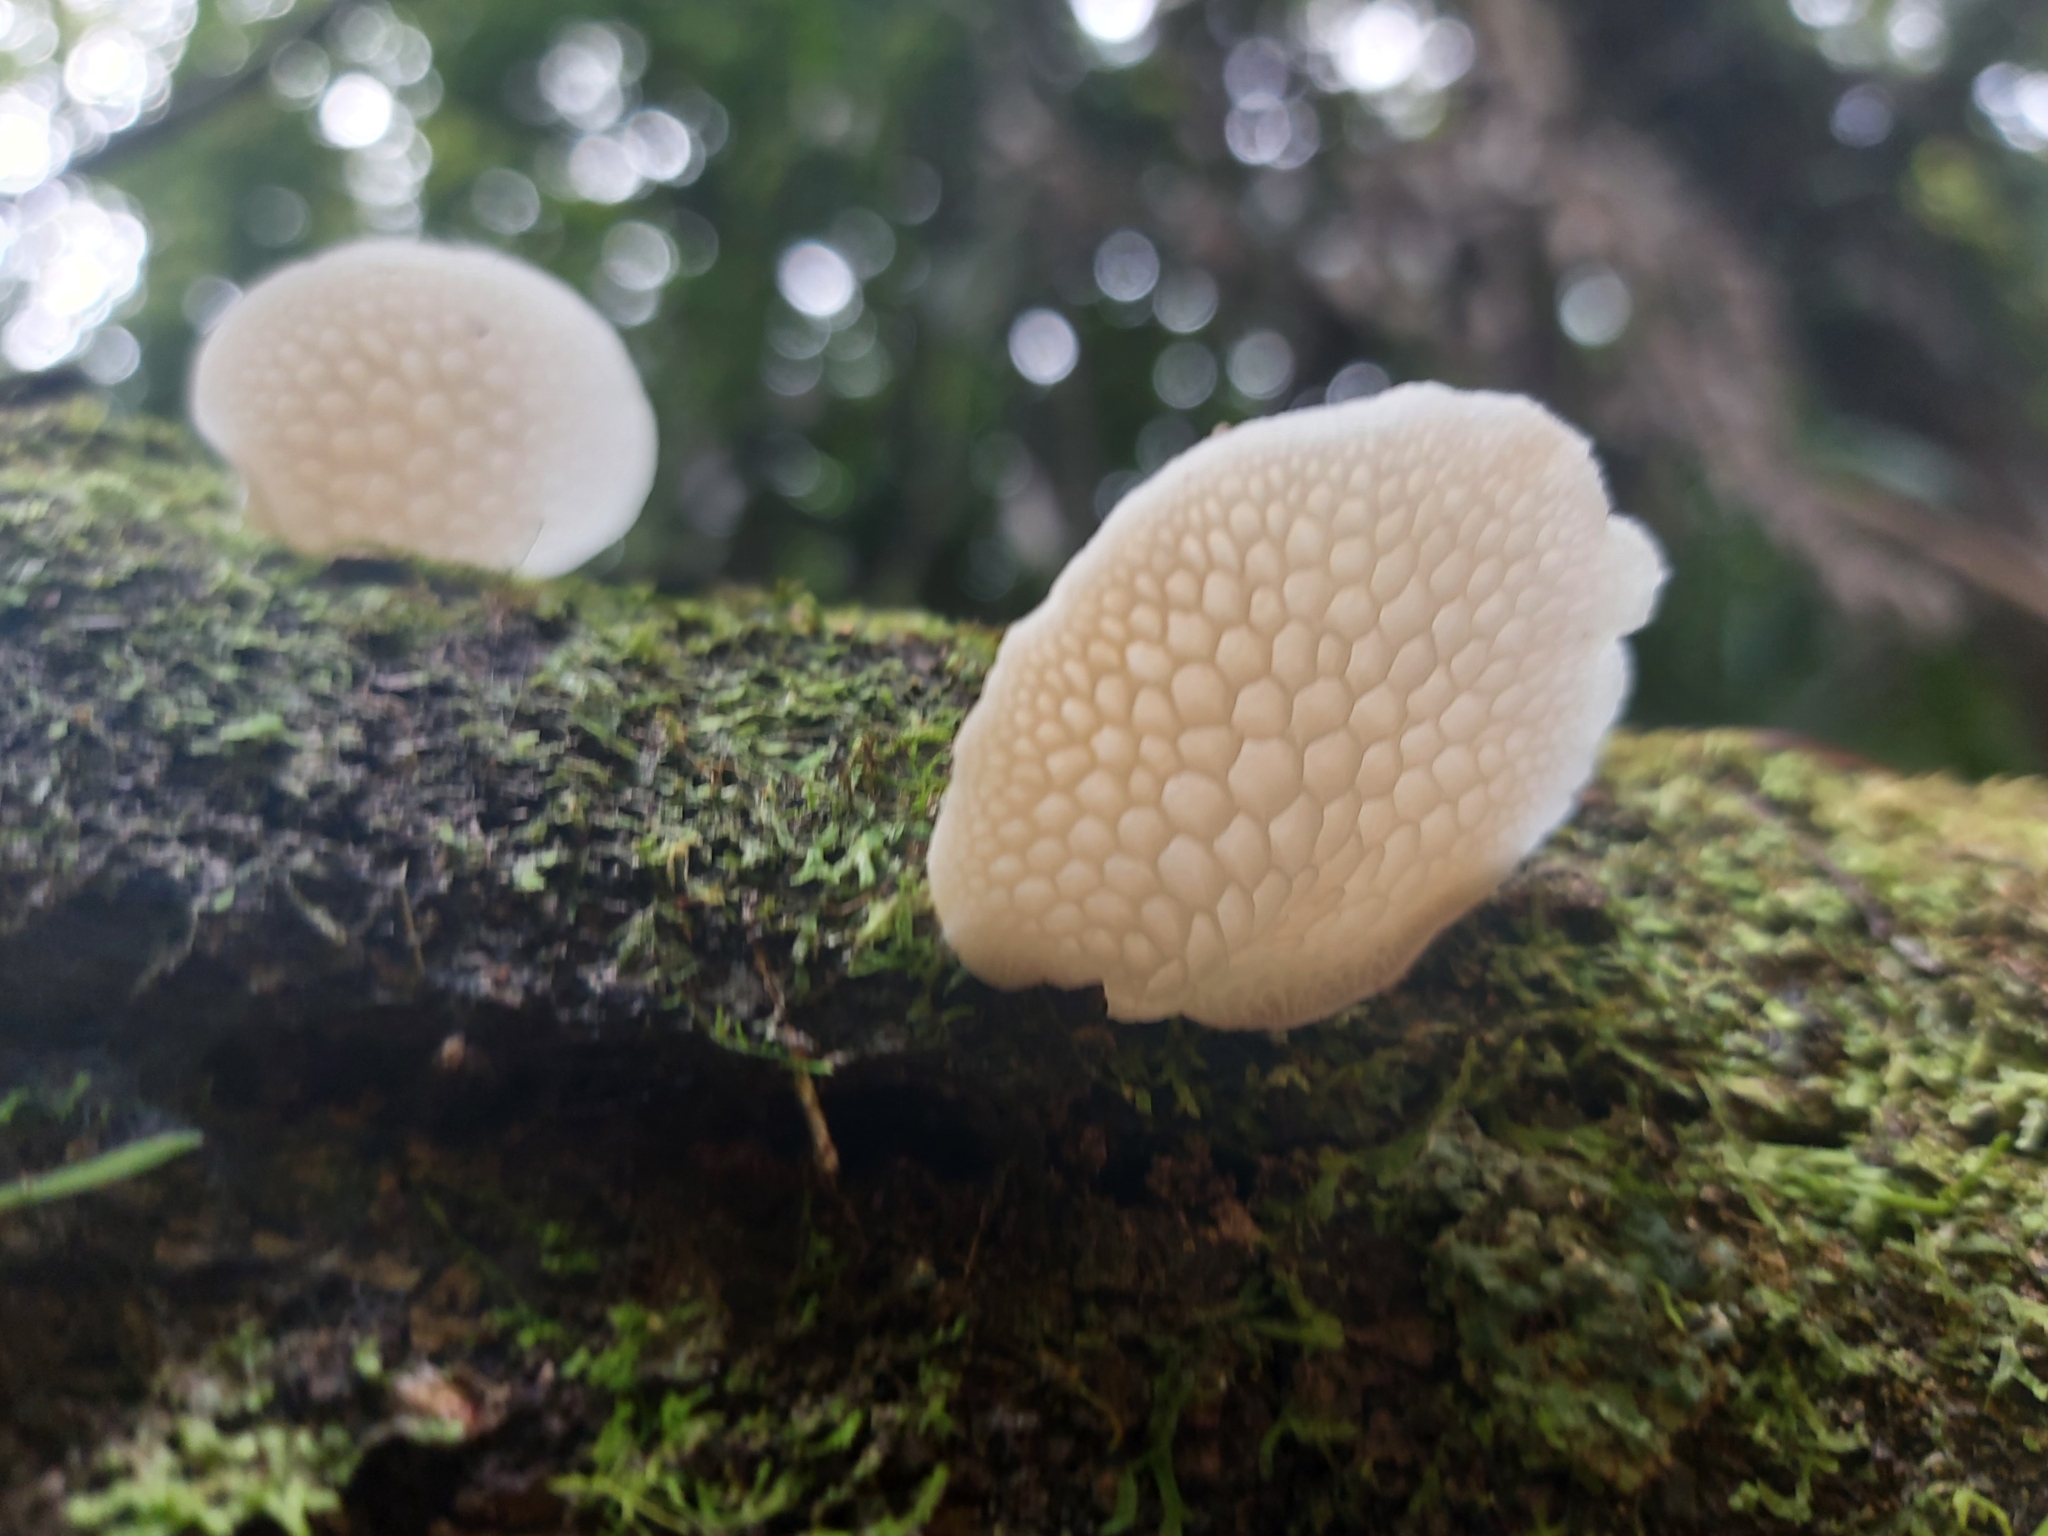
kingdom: Fungi
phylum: Basidiomycota
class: Agaricomycetes
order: Agaricales
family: Mycenaceae
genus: Favolaschia
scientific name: Favolaschia pustulosa
